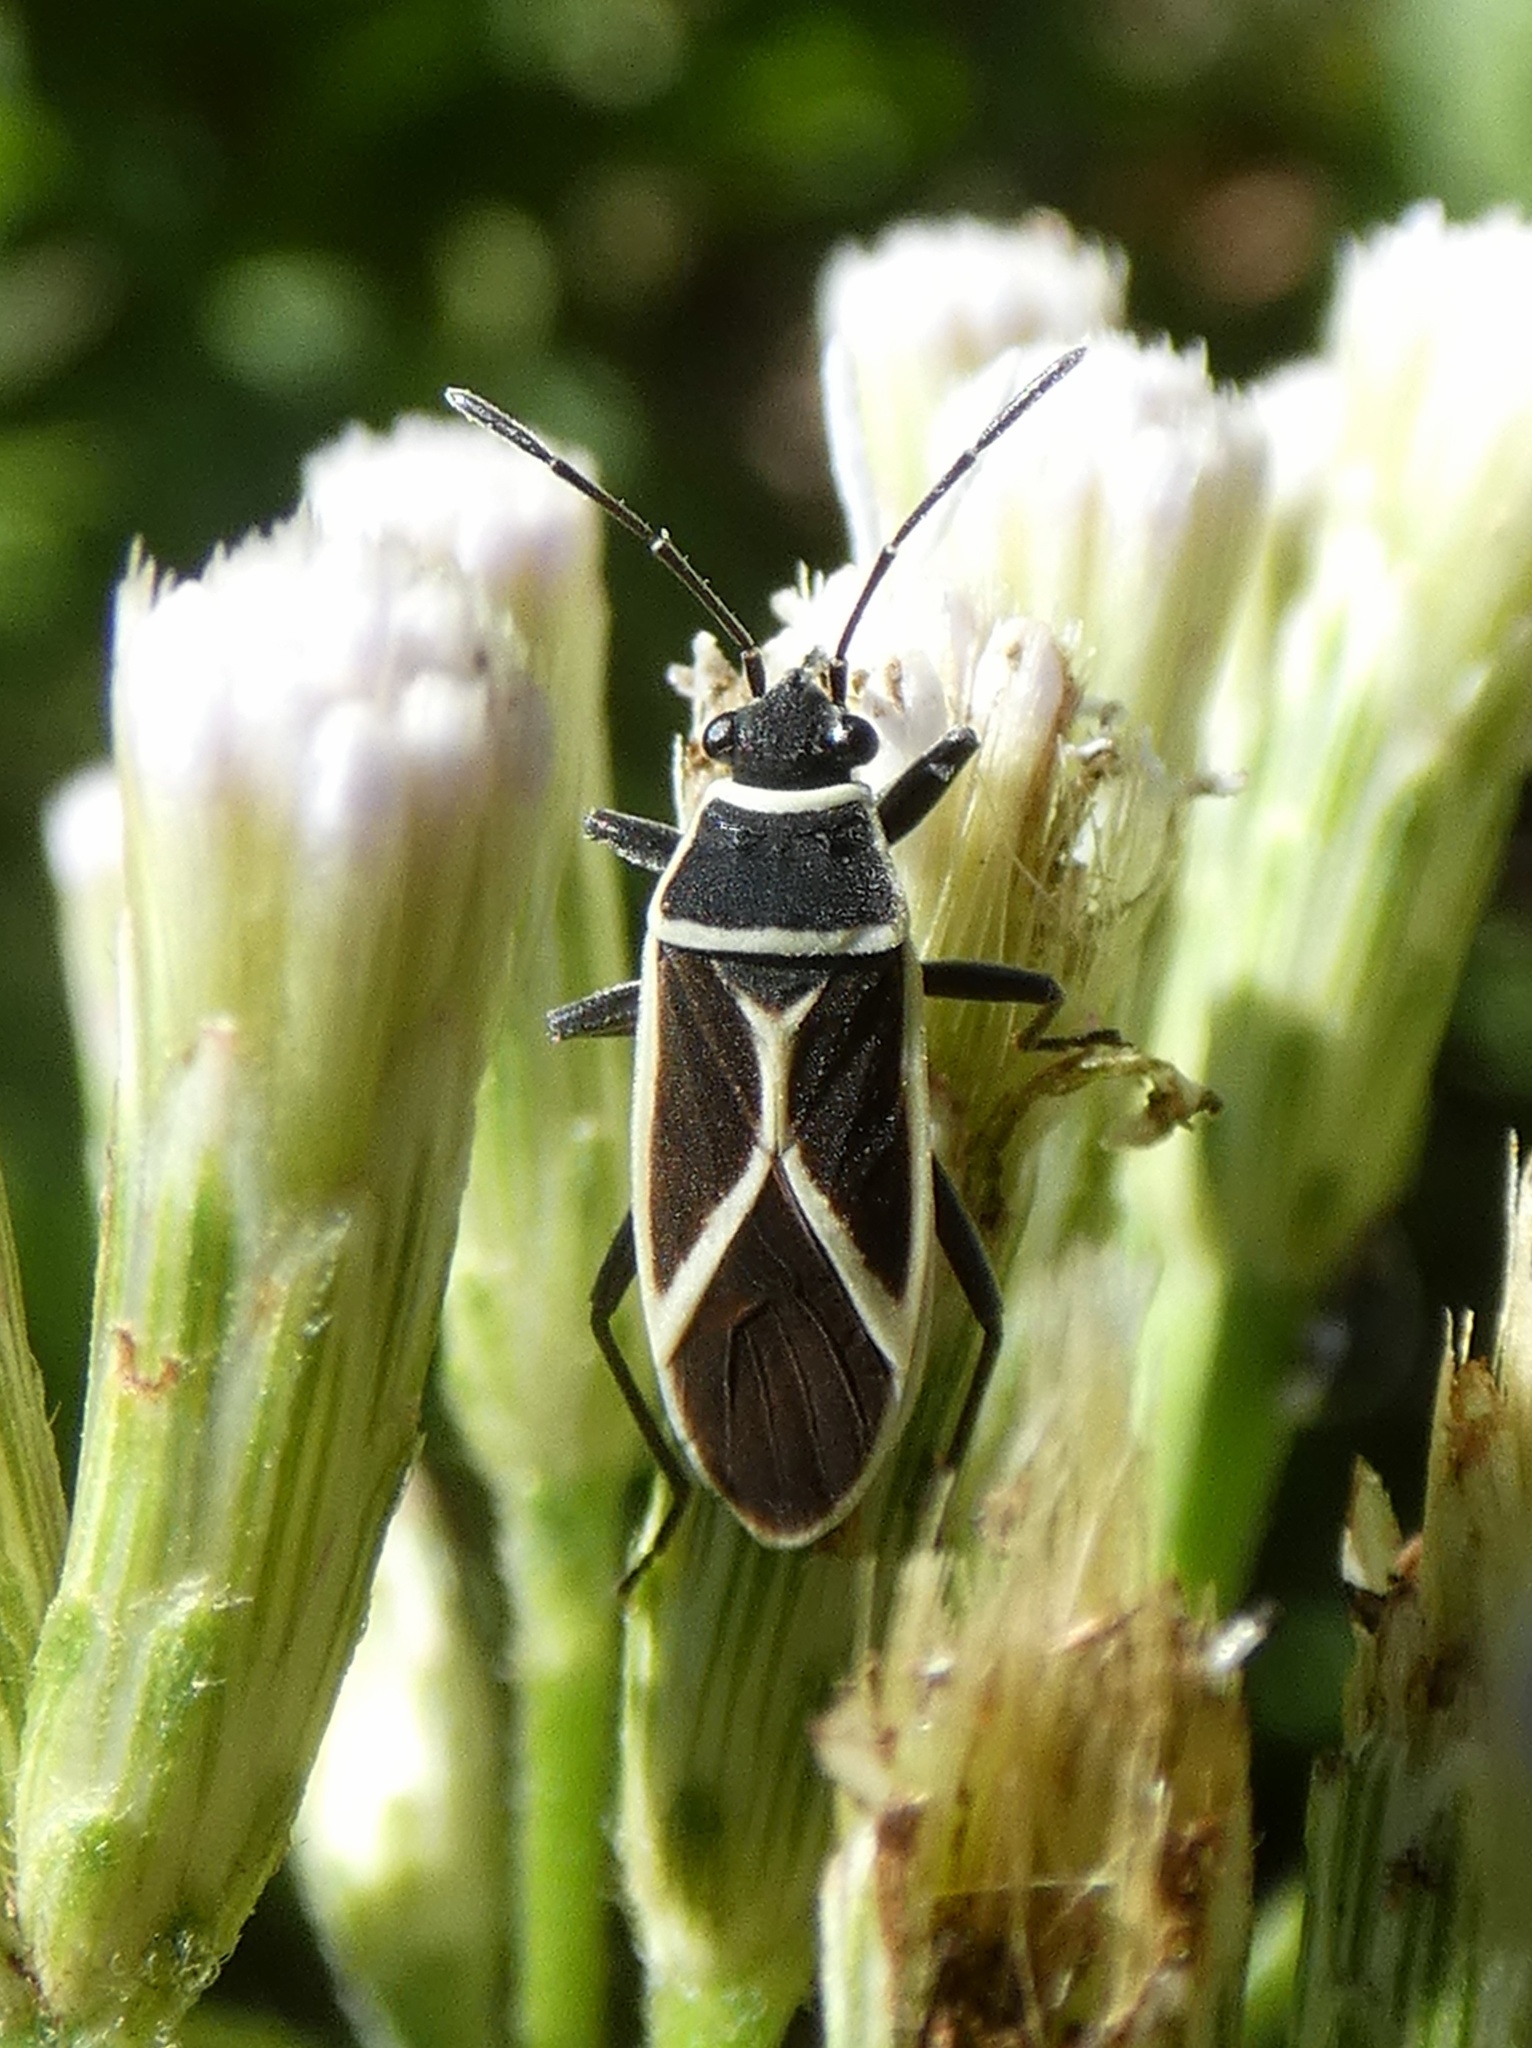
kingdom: Animalia
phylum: Arthropoda
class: Insecta
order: Hemiptera
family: Lygaeidae
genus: Ochrimnus
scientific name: Ochrimnus schizus
